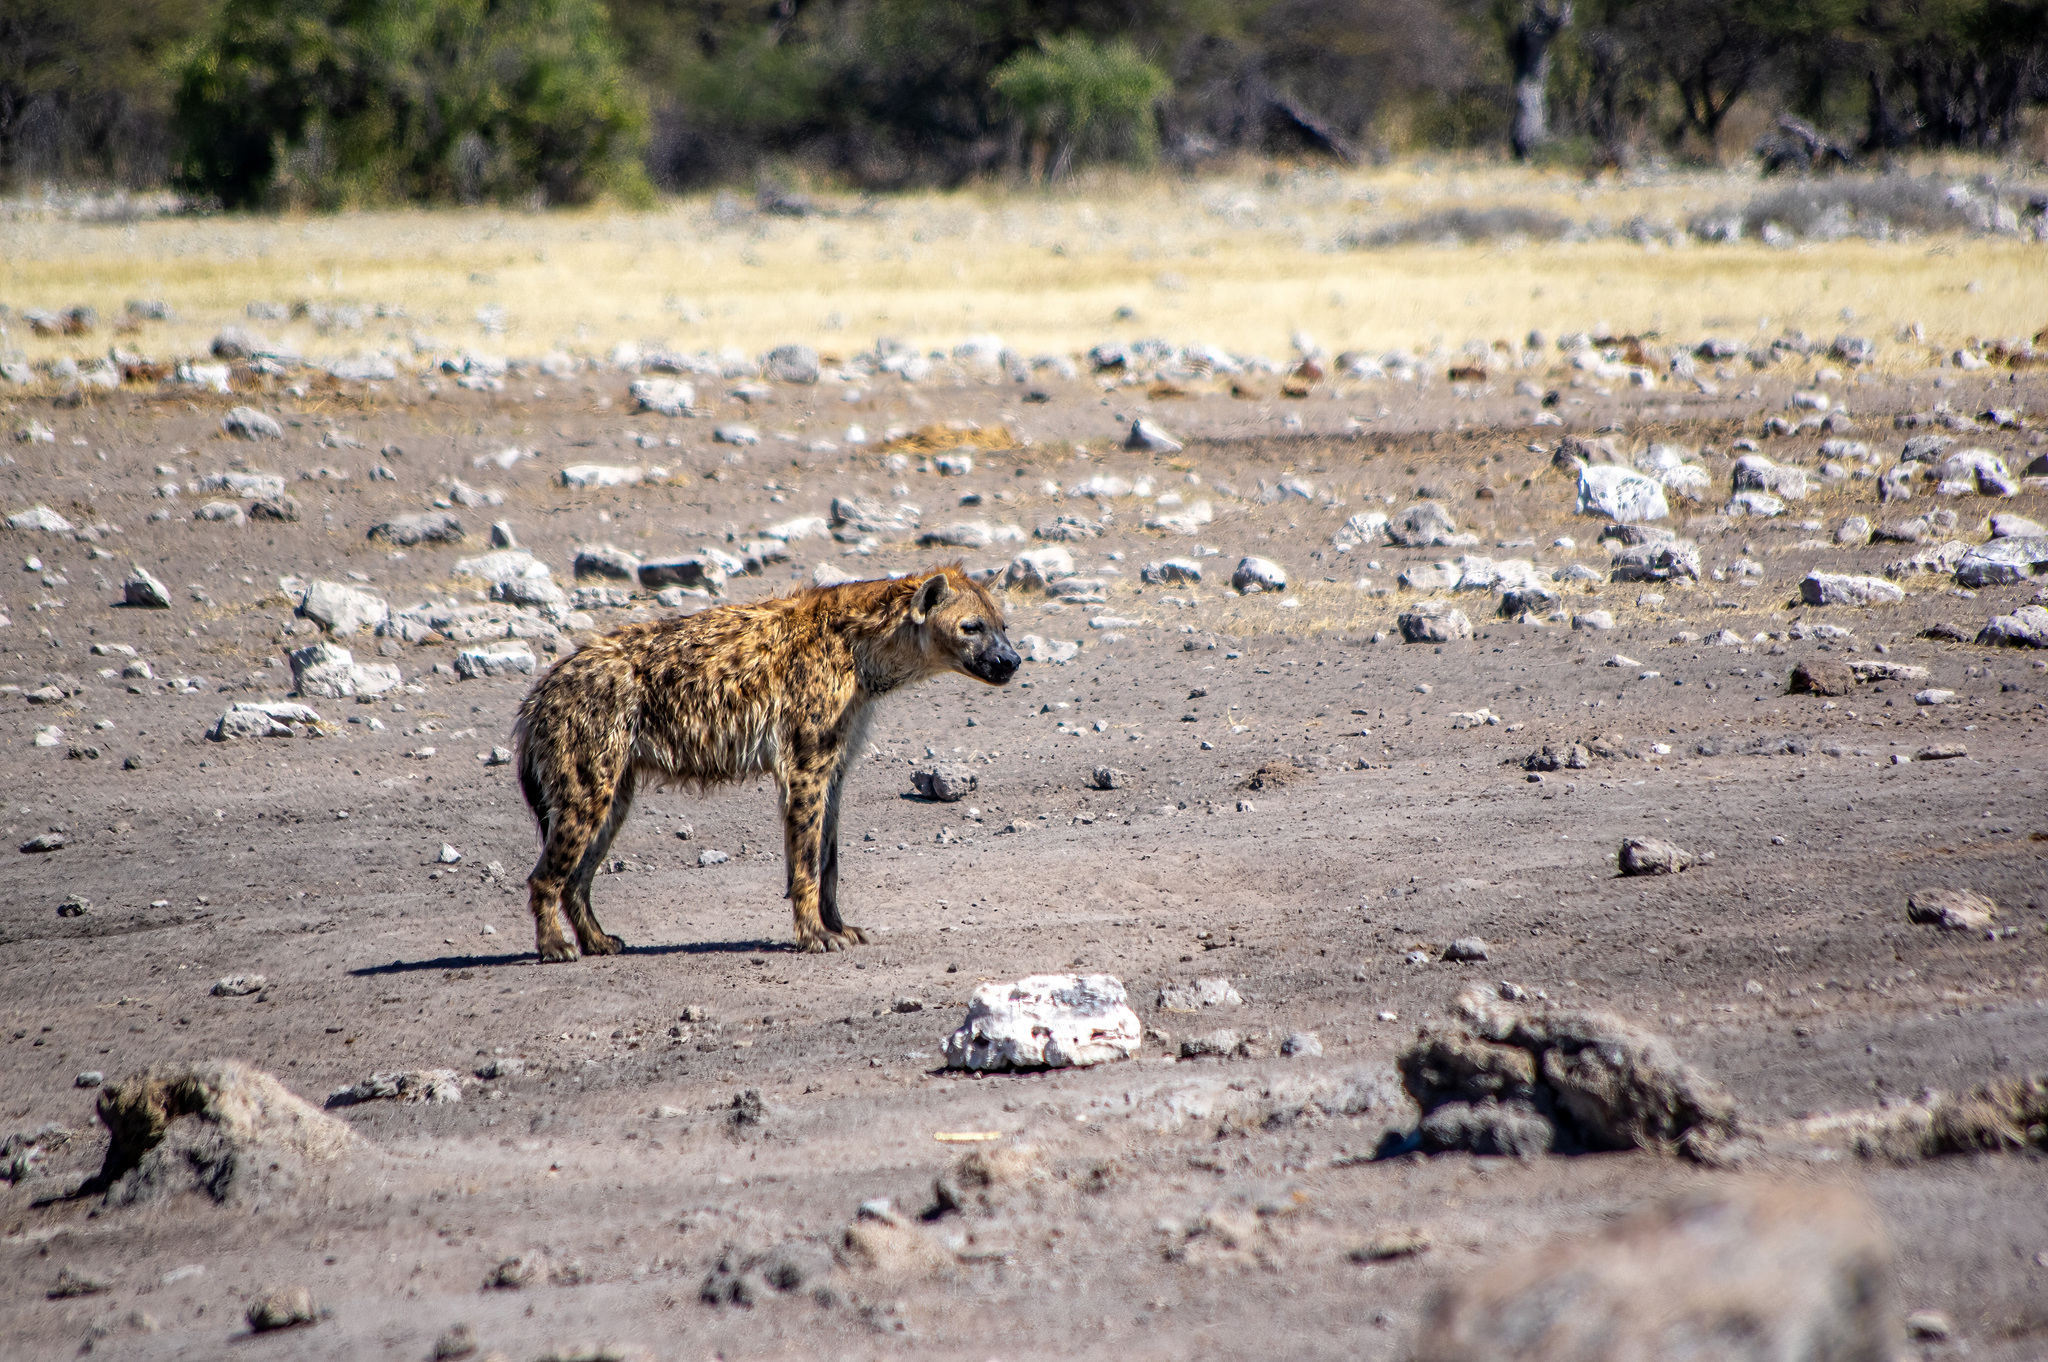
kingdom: Animalia
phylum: Chordata
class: Mammalia
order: Carnivora
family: Hyaenidae
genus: Crocuta
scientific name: Crocuta crocuta
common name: Spotted hyaena
